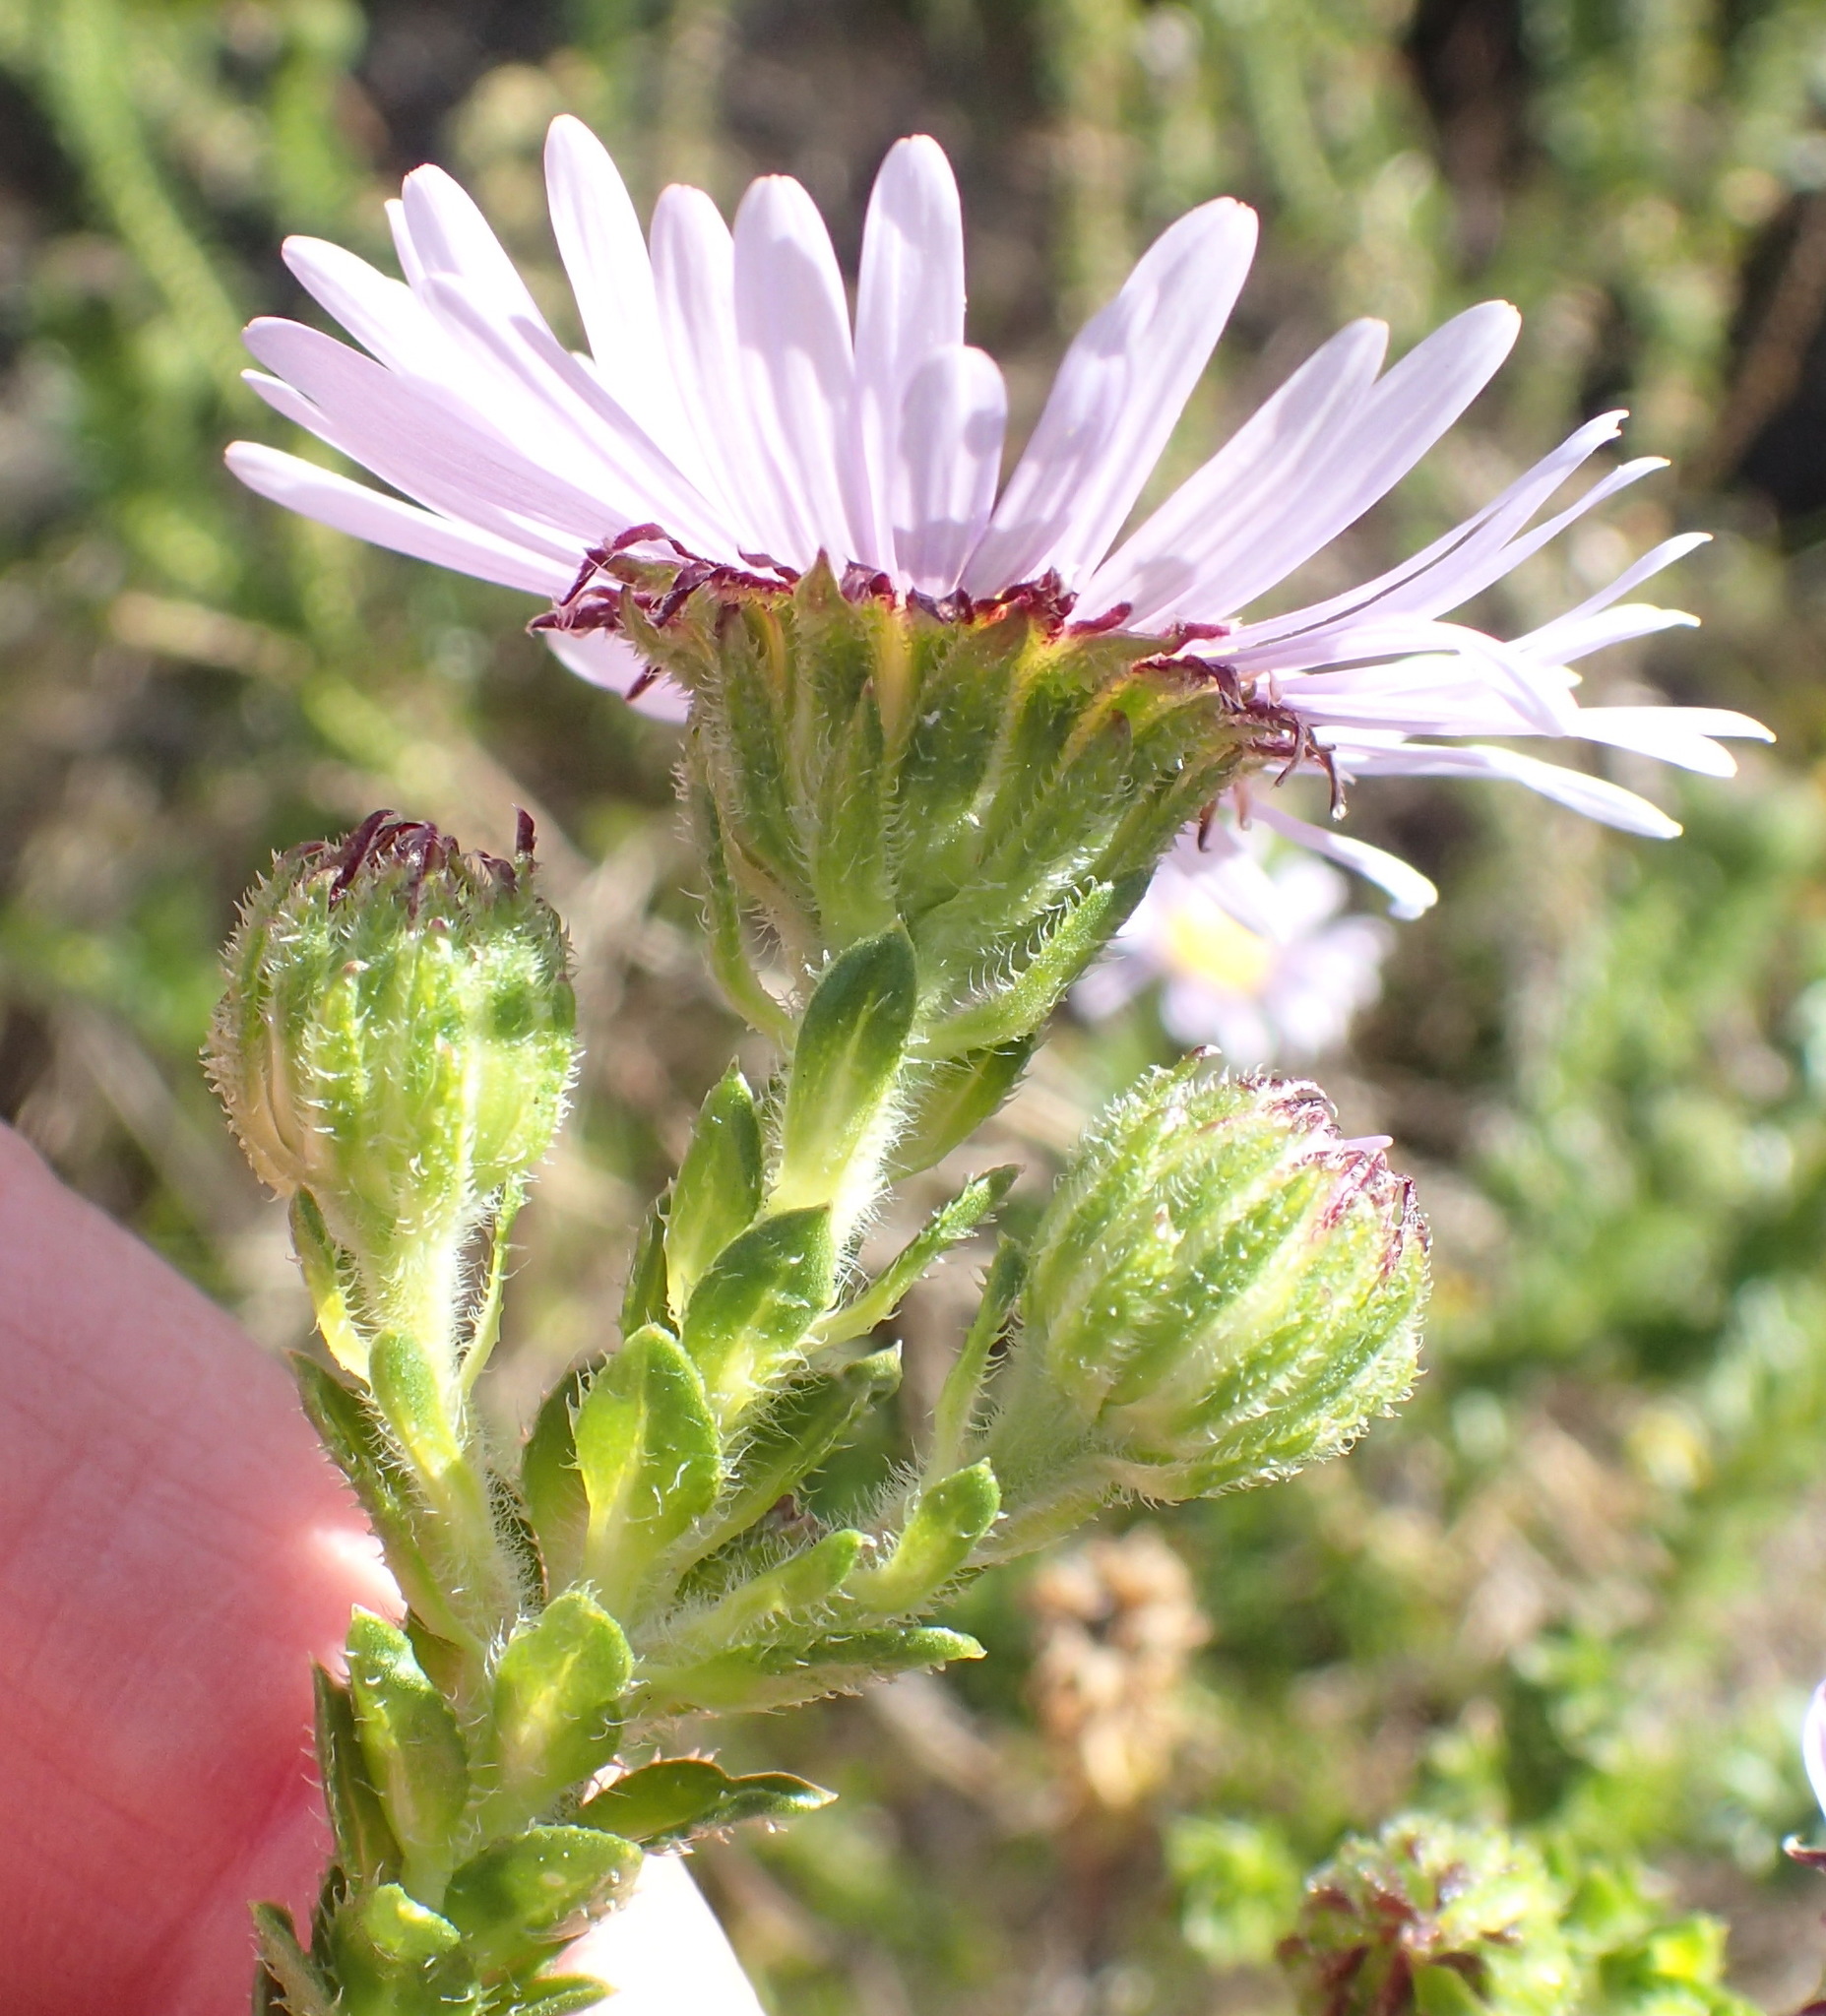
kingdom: Plantae
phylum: Tracheophyta
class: Magnoliopsida
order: Asterales
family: Asteraceae
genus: Felicia
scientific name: Felicia echinata
